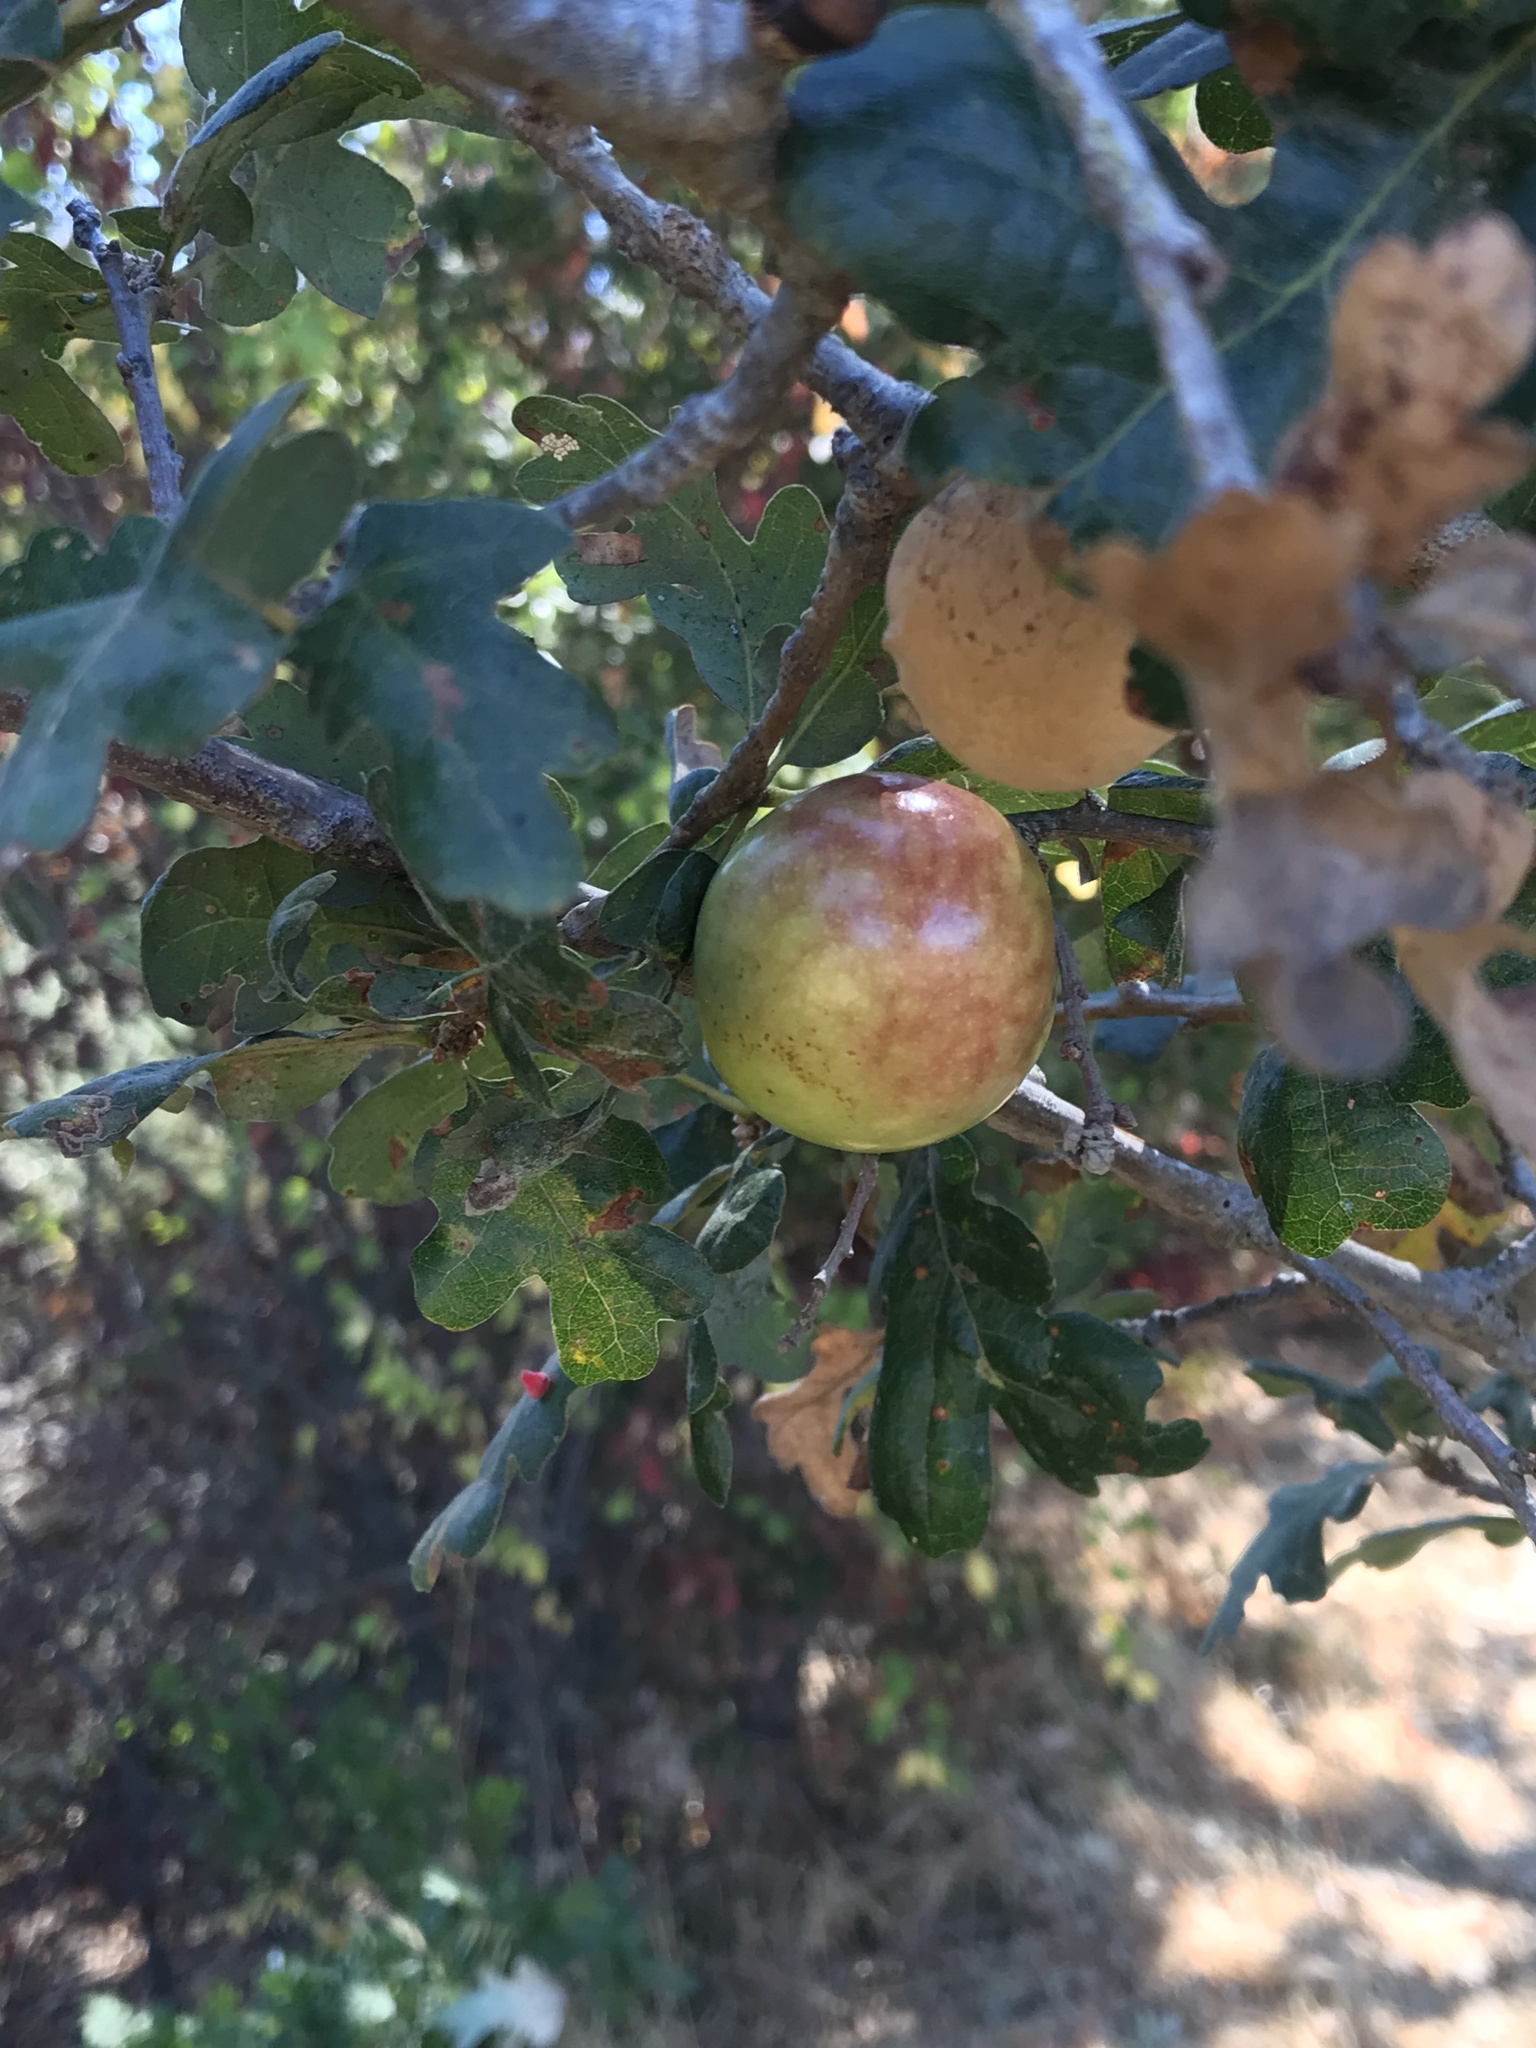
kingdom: Animalia
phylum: Arthropoda
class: Insecta
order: Hymenoptera
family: Cynipidae
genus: Andricus
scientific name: Andricus quercuscalifornicus
